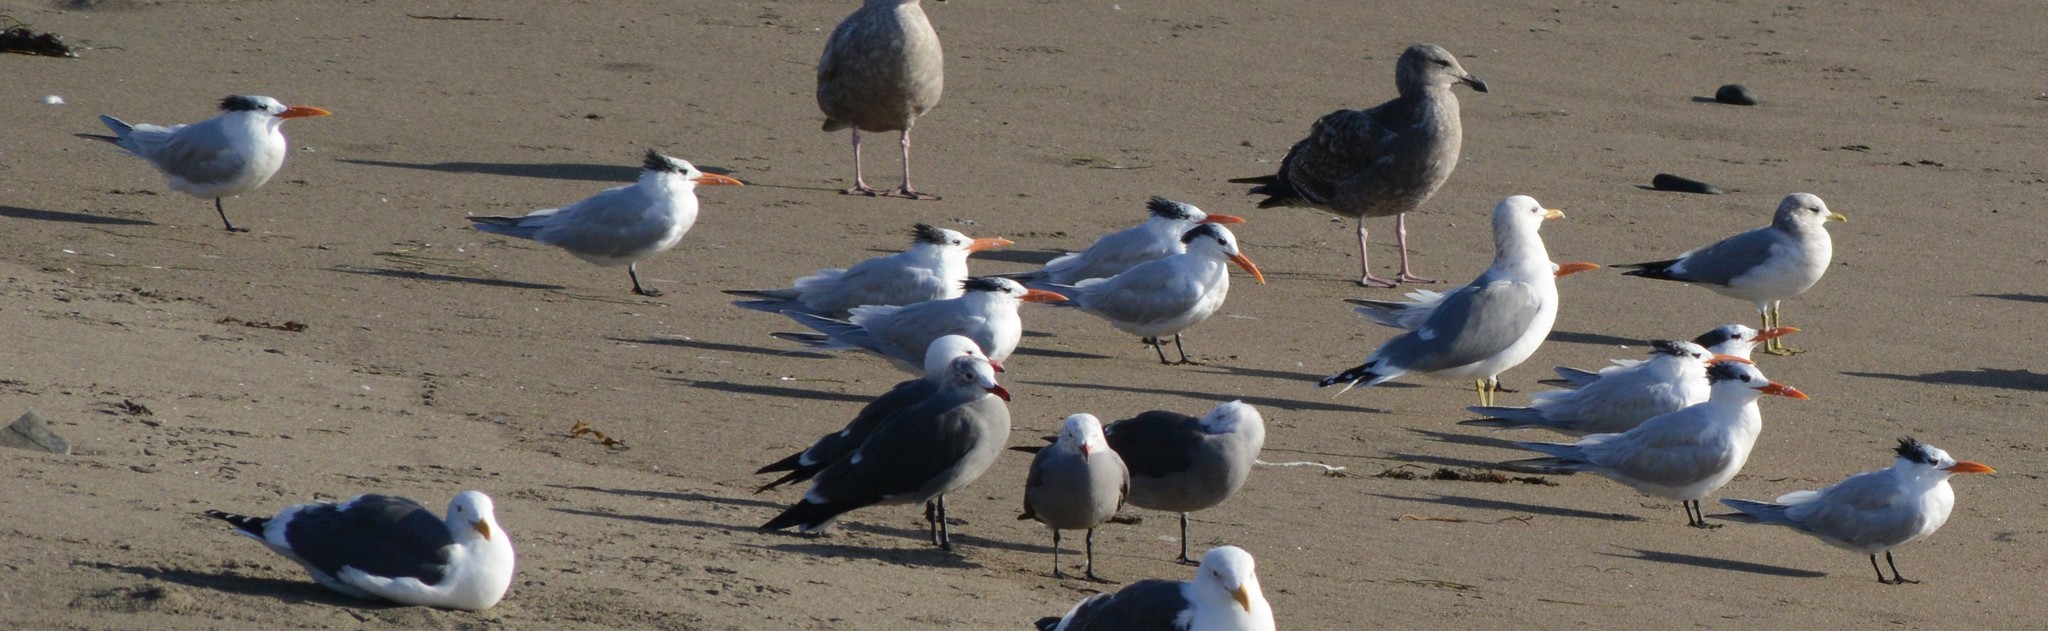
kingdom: Animalia
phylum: Chordata
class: Aves
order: Charadriiformes
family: Laridae
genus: Thalasseus
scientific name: Thalasseus maximus
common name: Royal tern
